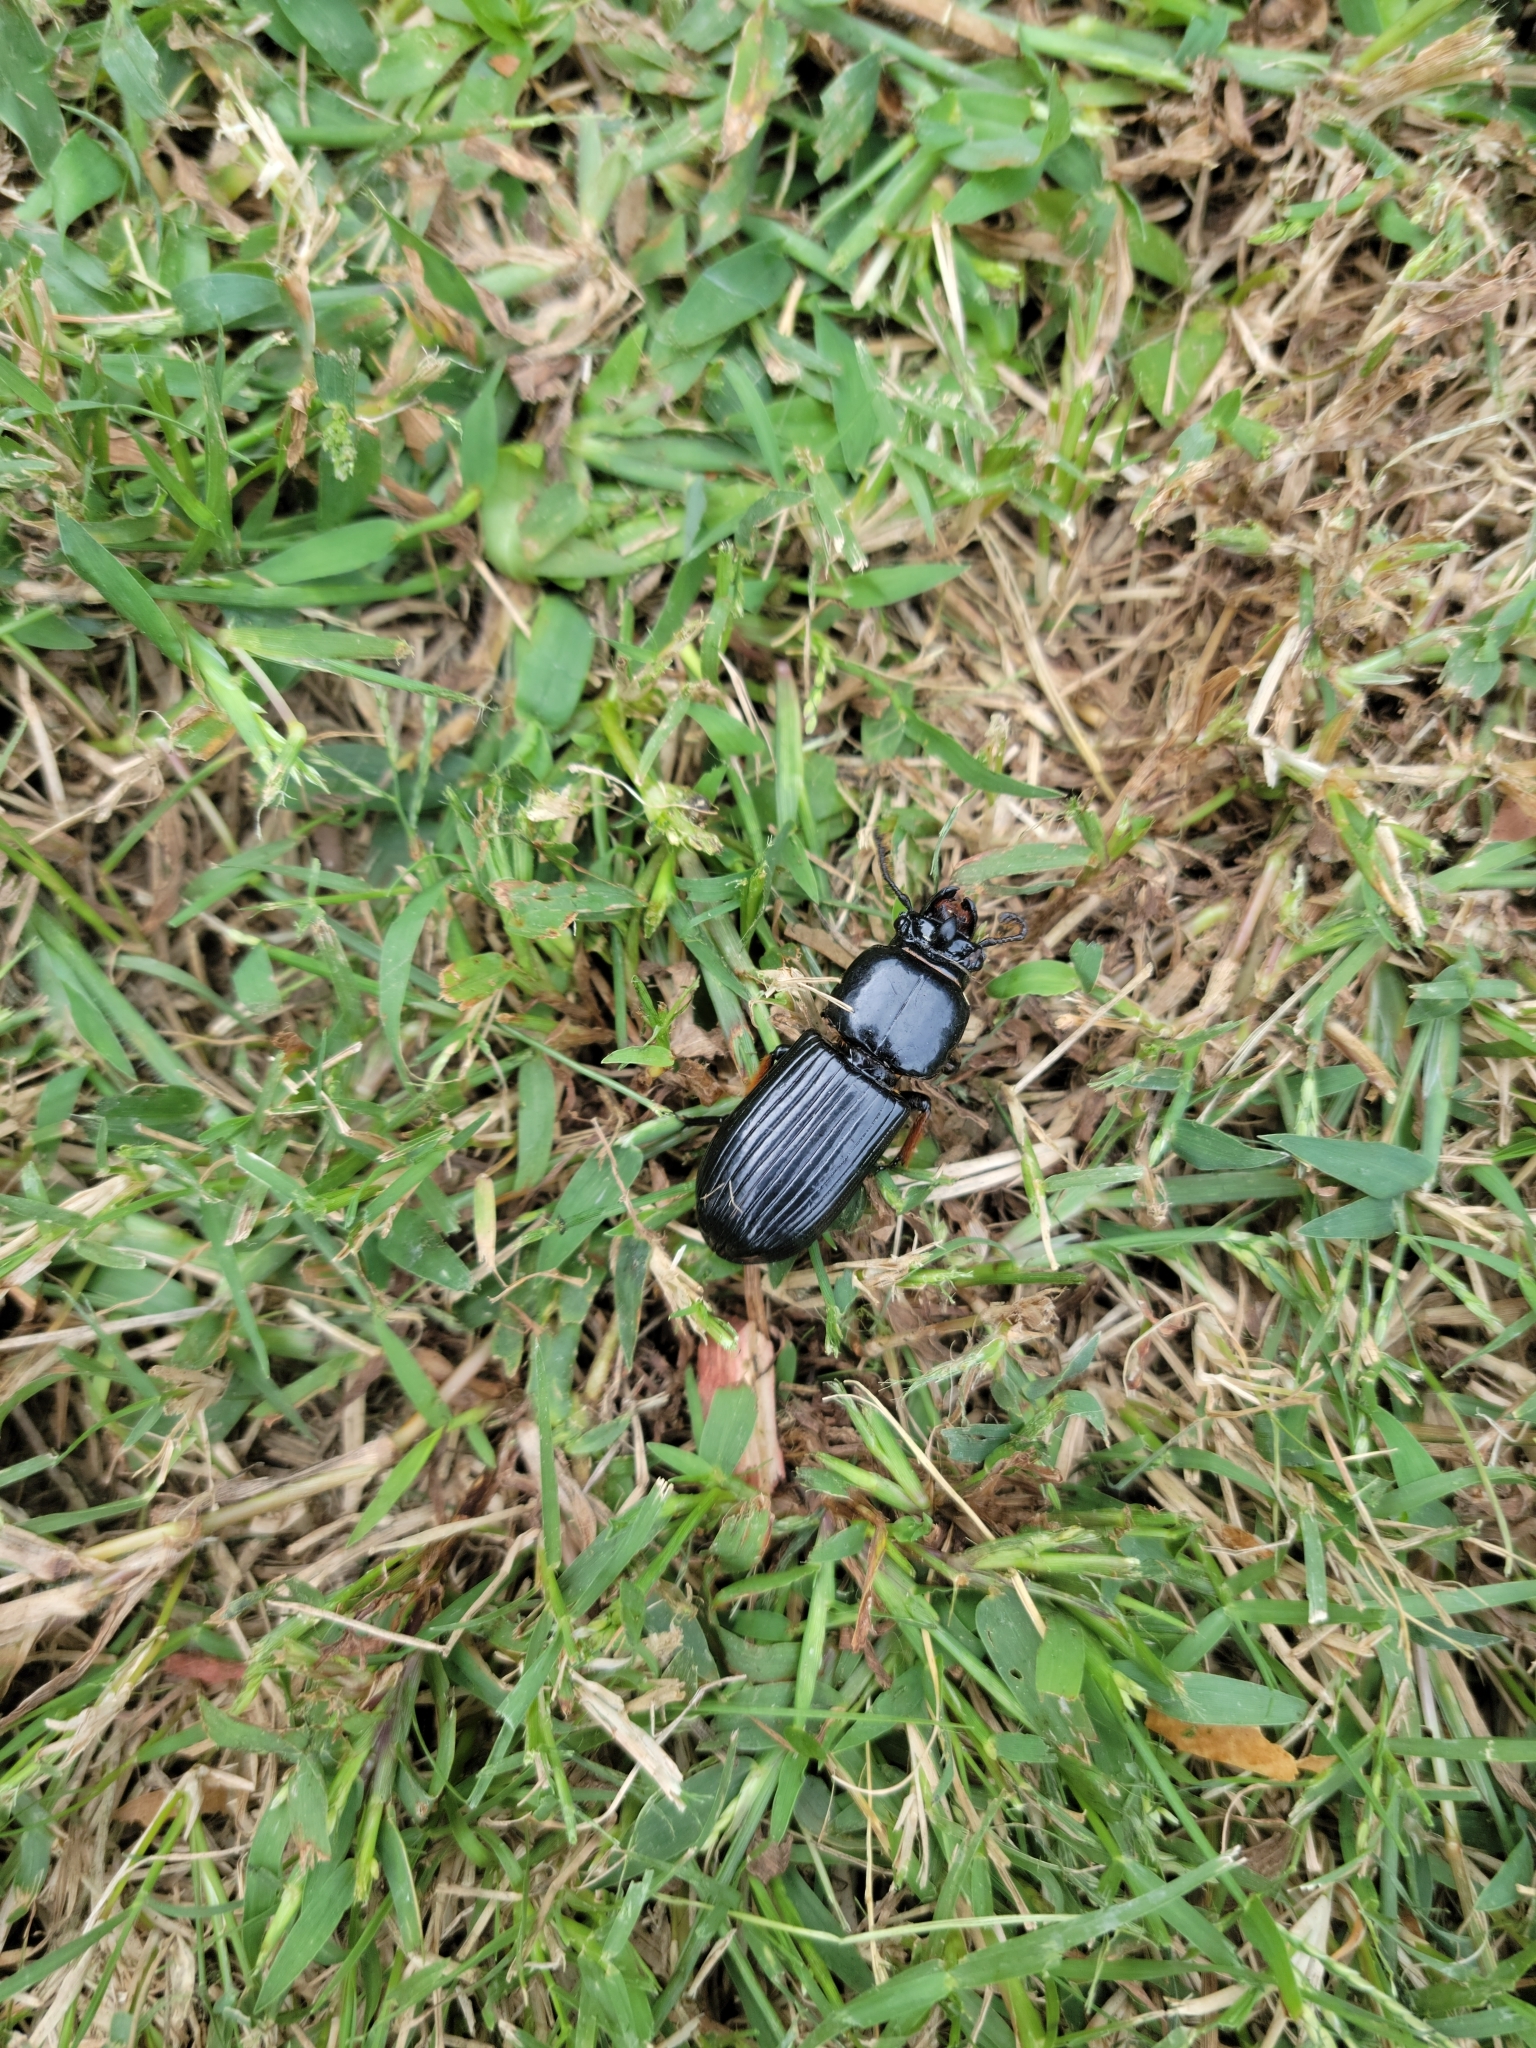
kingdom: Animalia
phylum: Arthropoda
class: Insecta
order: Coleoptera
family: Passalidae
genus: Odontotaenius
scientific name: Odontotaenius disjunctus
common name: Patent leather beetle
